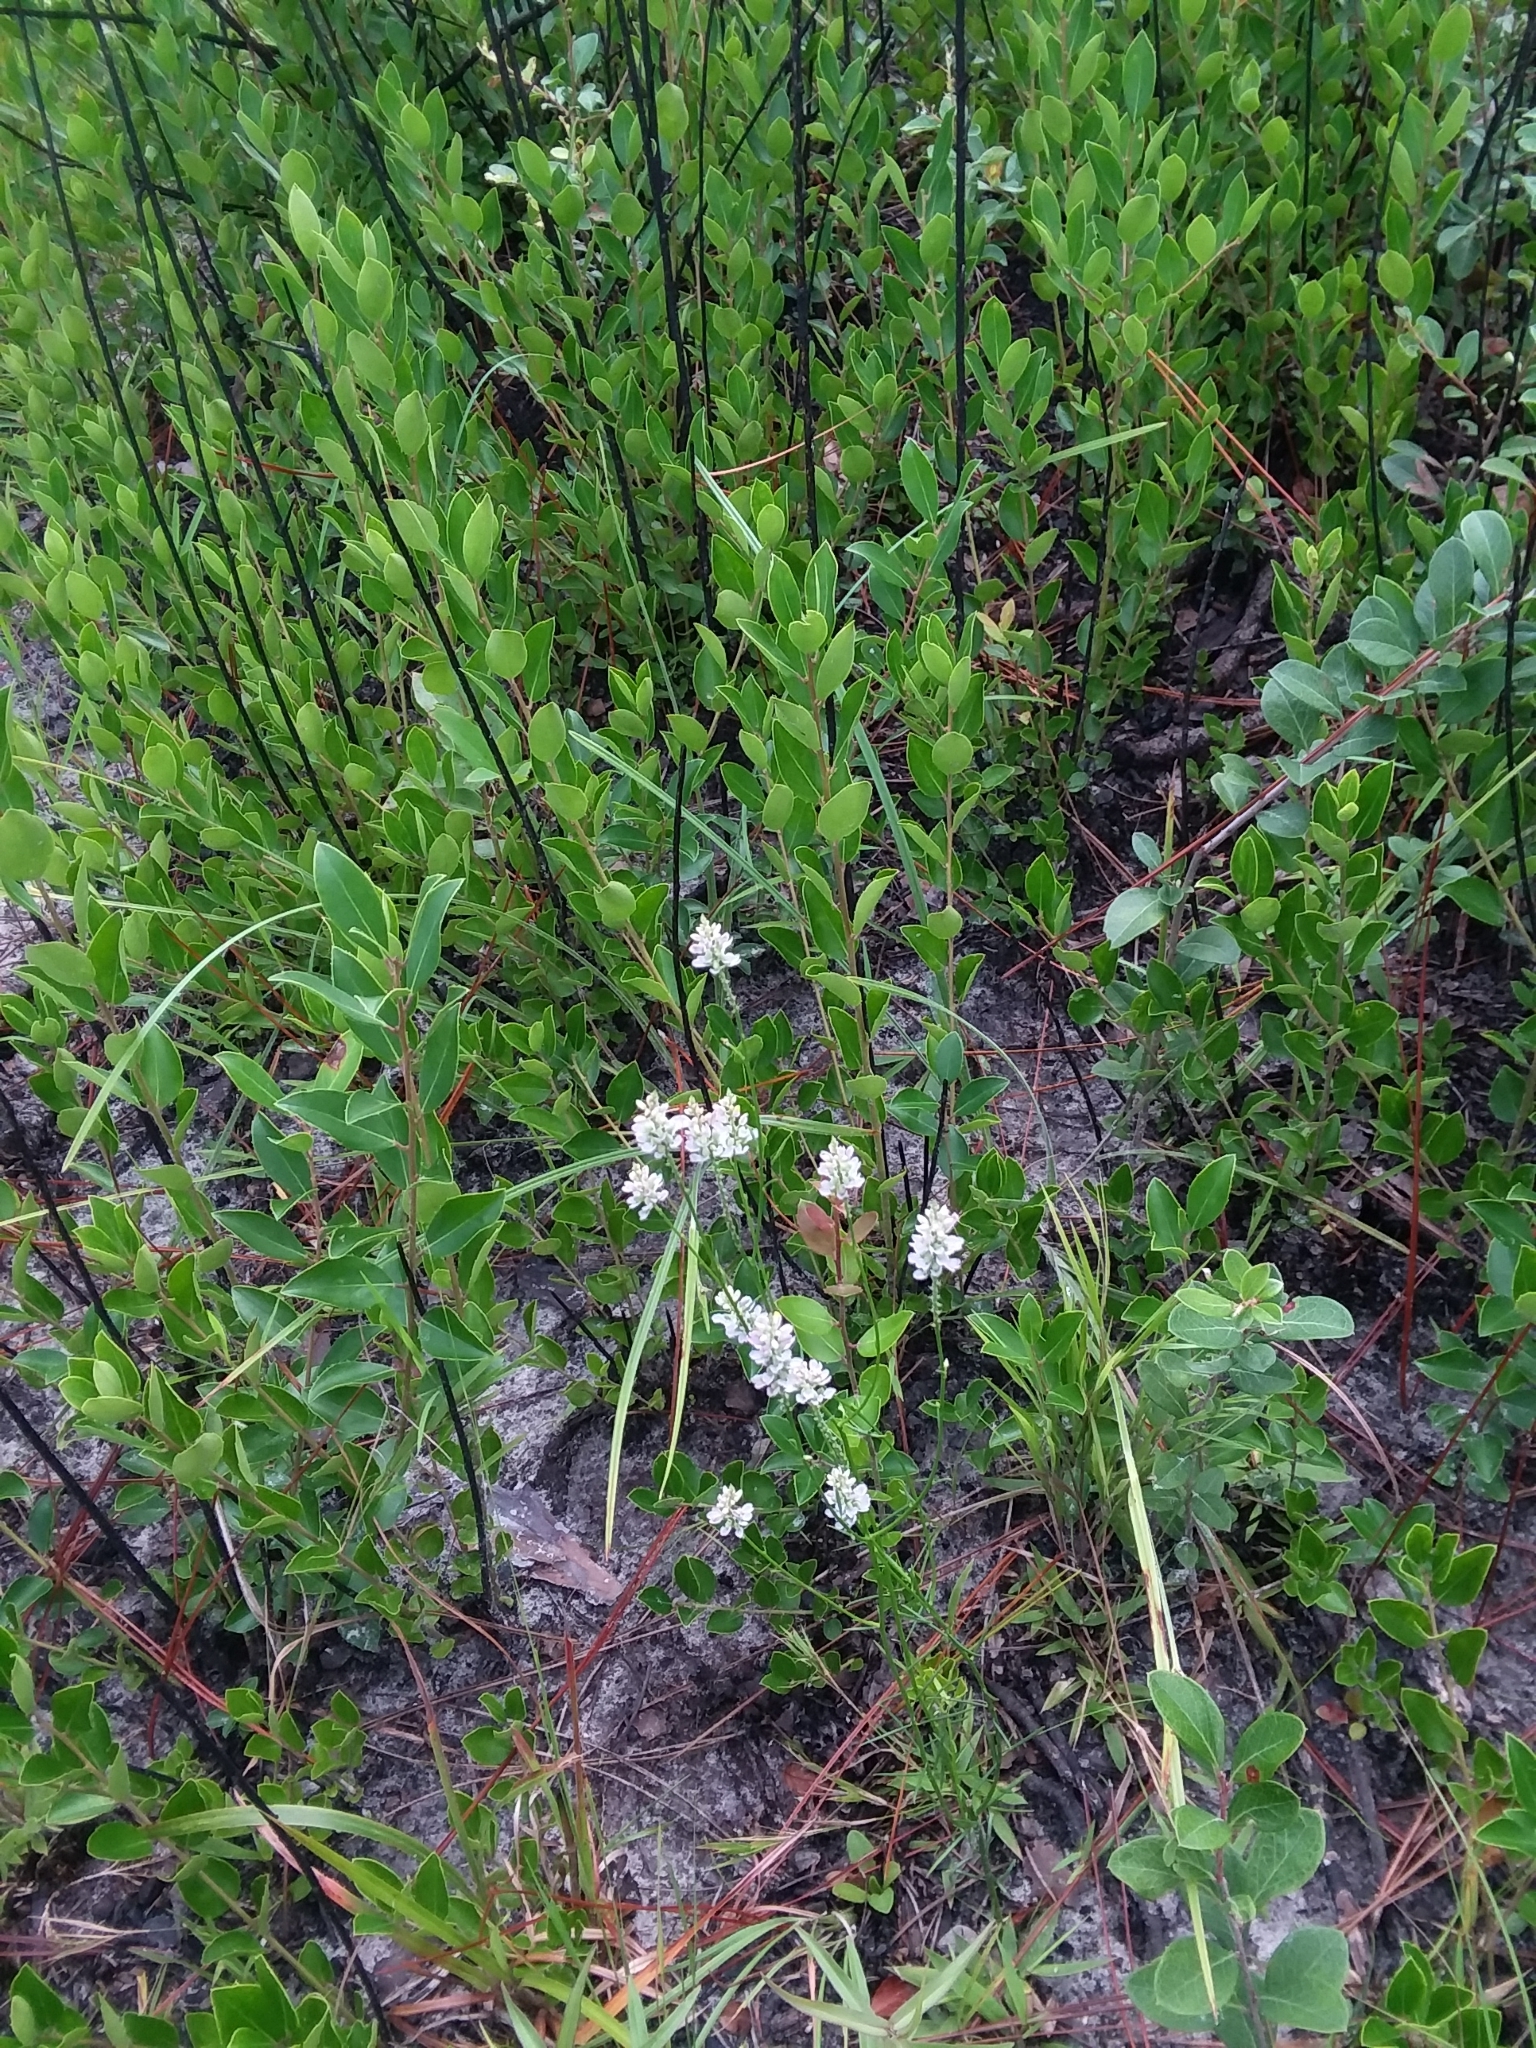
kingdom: Plantae
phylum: Tracheophyta
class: Magnoliopsida
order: Fabales
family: Polygalaceae
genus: Polygala
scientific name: Polygala chapmanii
